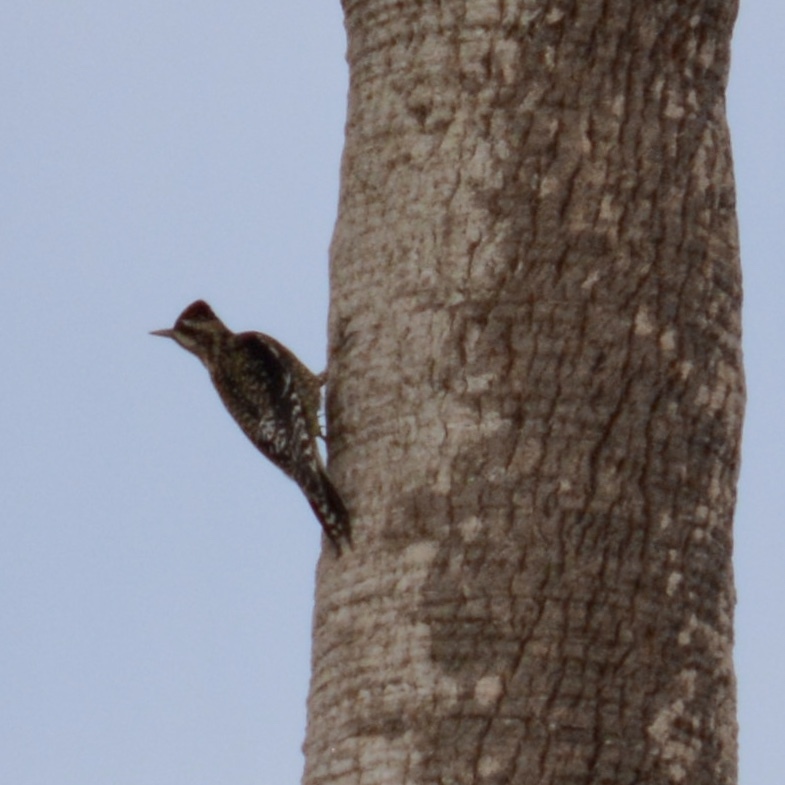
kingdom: Animalia
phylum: Chordata
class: Aves
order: Piciformes
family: Picidae
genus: Sphyrapicus
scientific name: Sphyrapicus varius
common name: Yellow-bellied sapsucker
